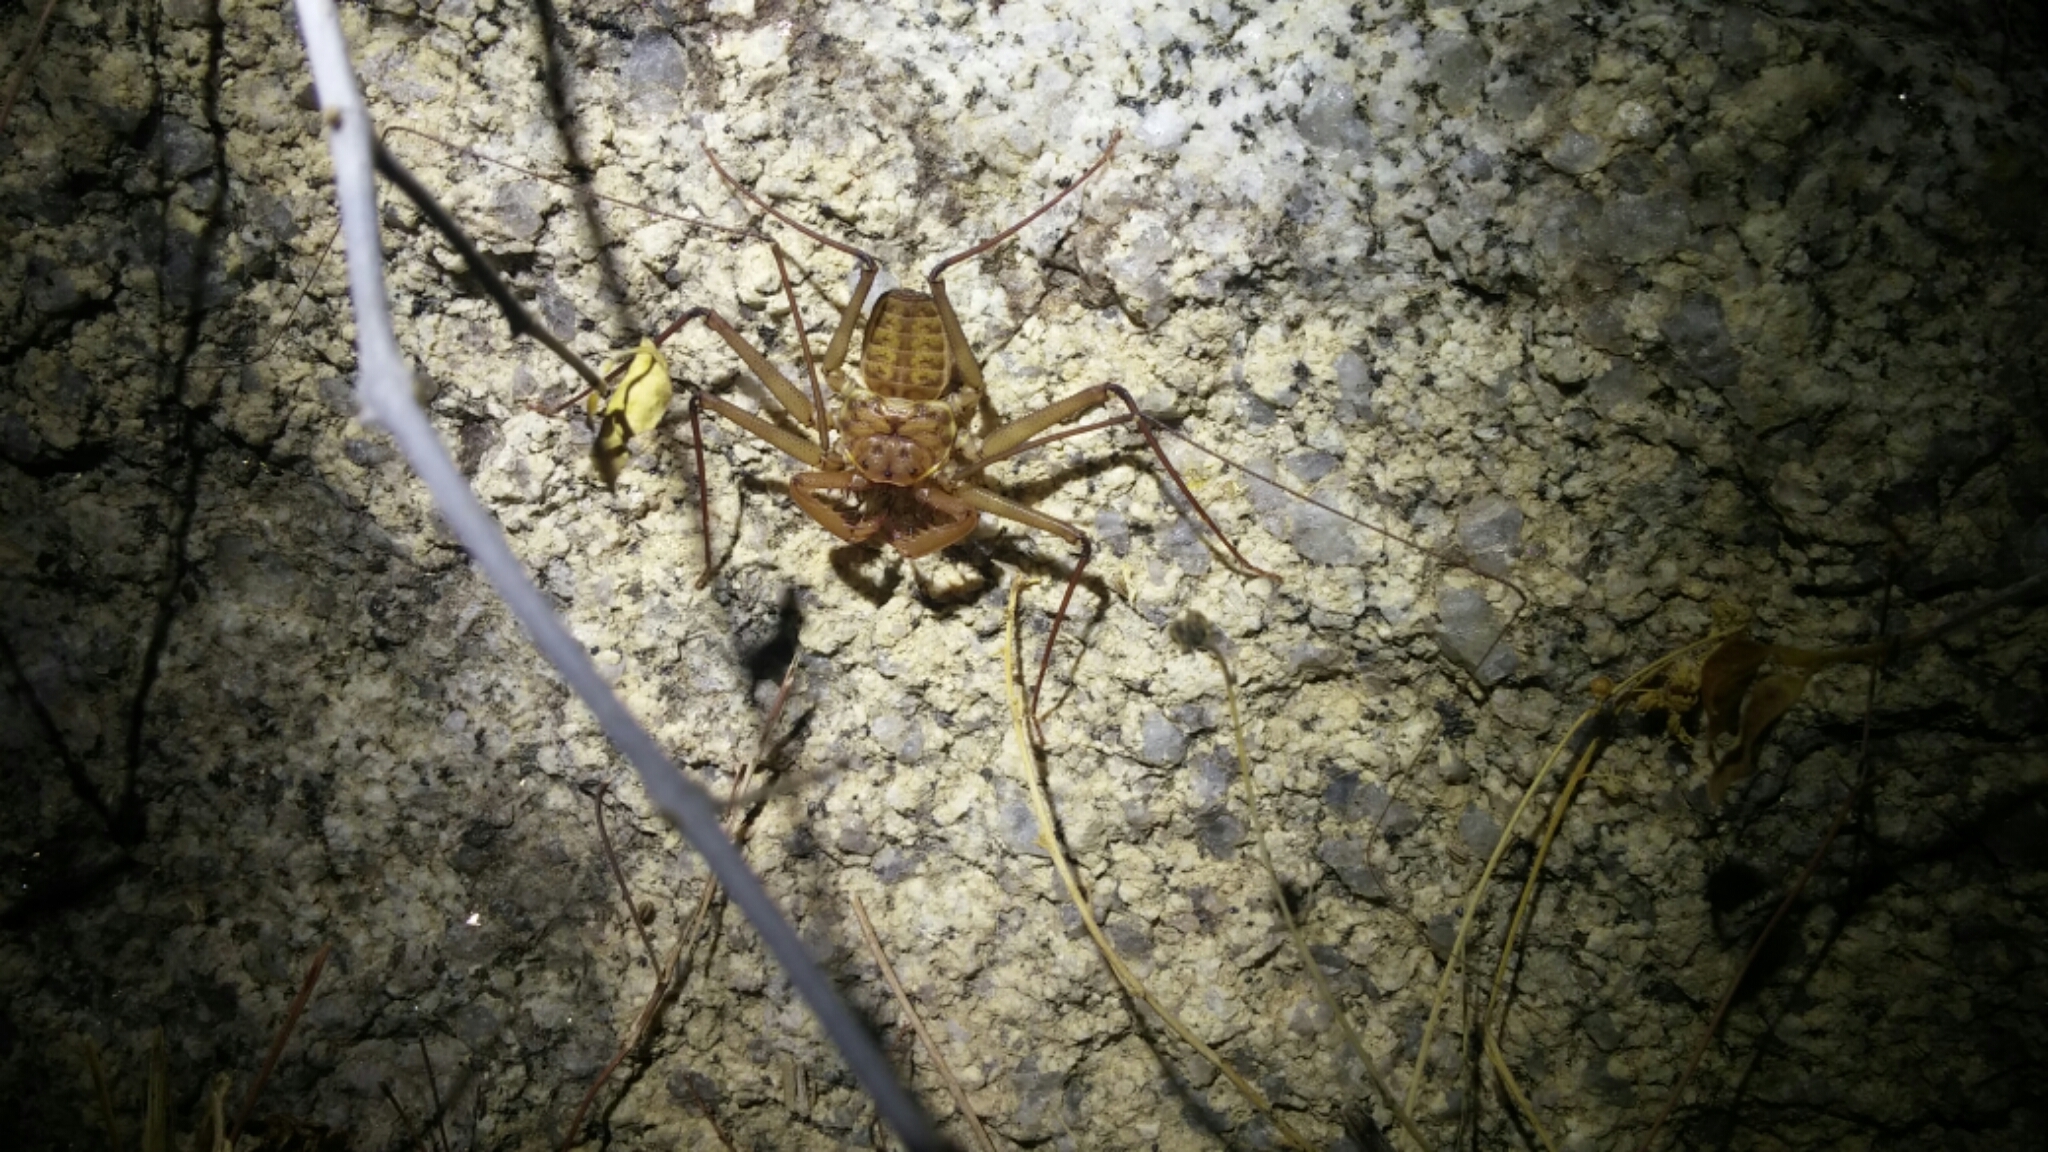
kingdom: Animalia
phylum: Arthropoda
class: Arachnida
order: Amblypygi
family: Phrynidae
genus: Phrynus
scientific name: Phrynus asperatipes
